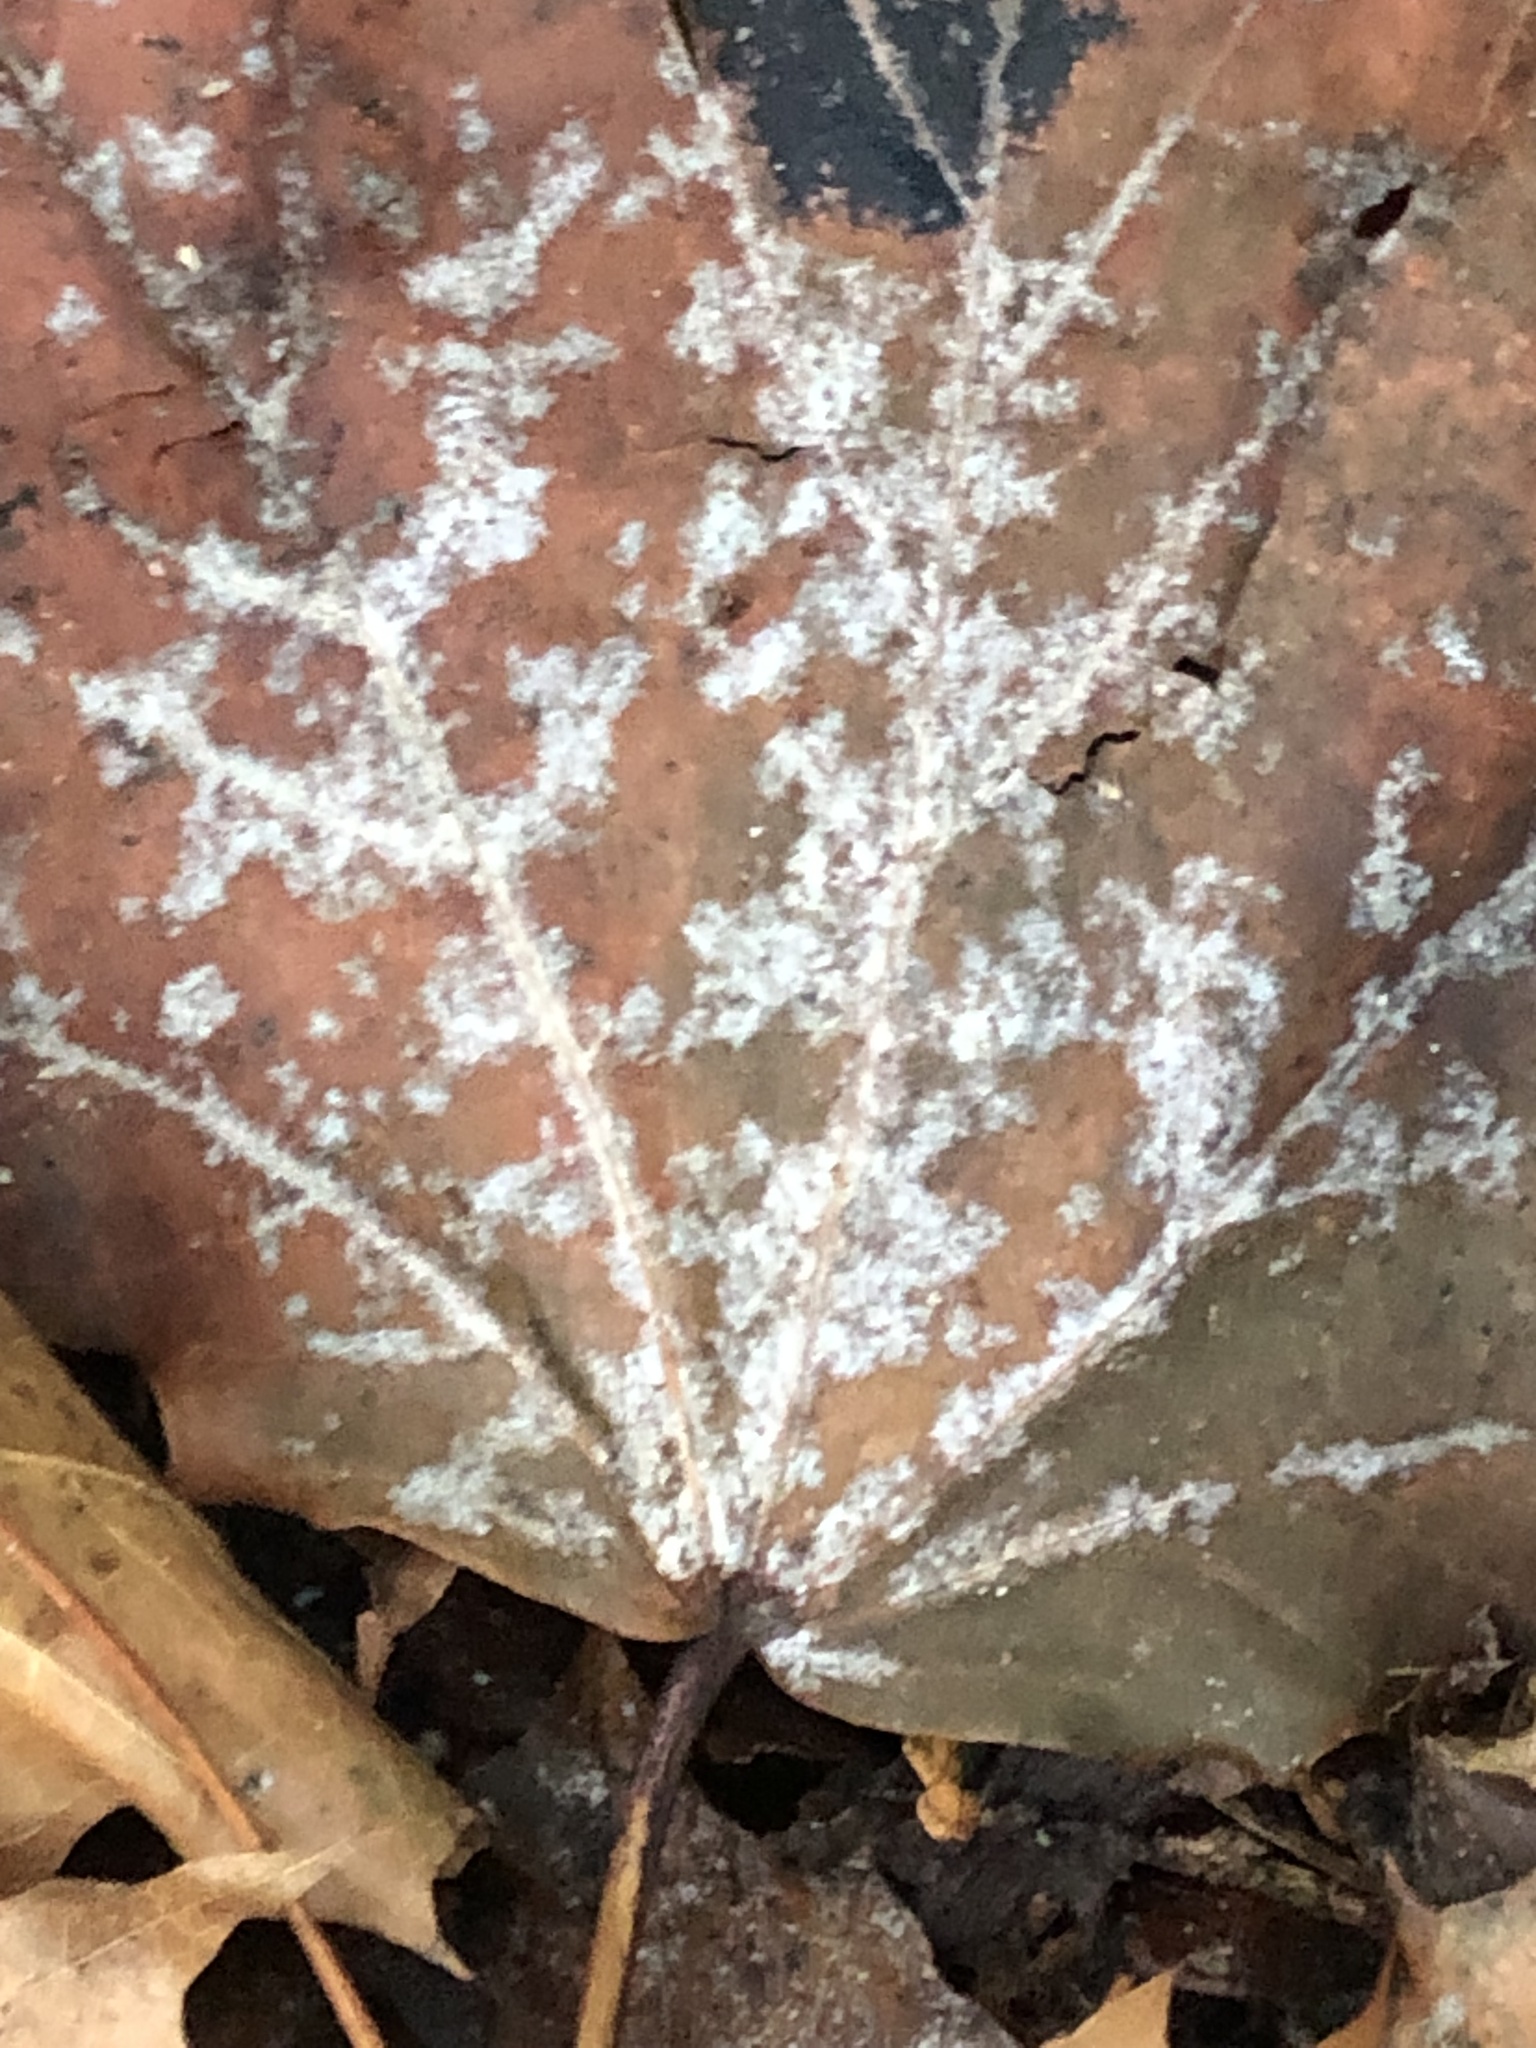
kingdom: Fungi
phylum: Ascomycota
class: Leotiomycetes
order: Helotiales
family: Erysiphaceae
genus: Sawadaea
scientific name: Sawadaea tulasnei
